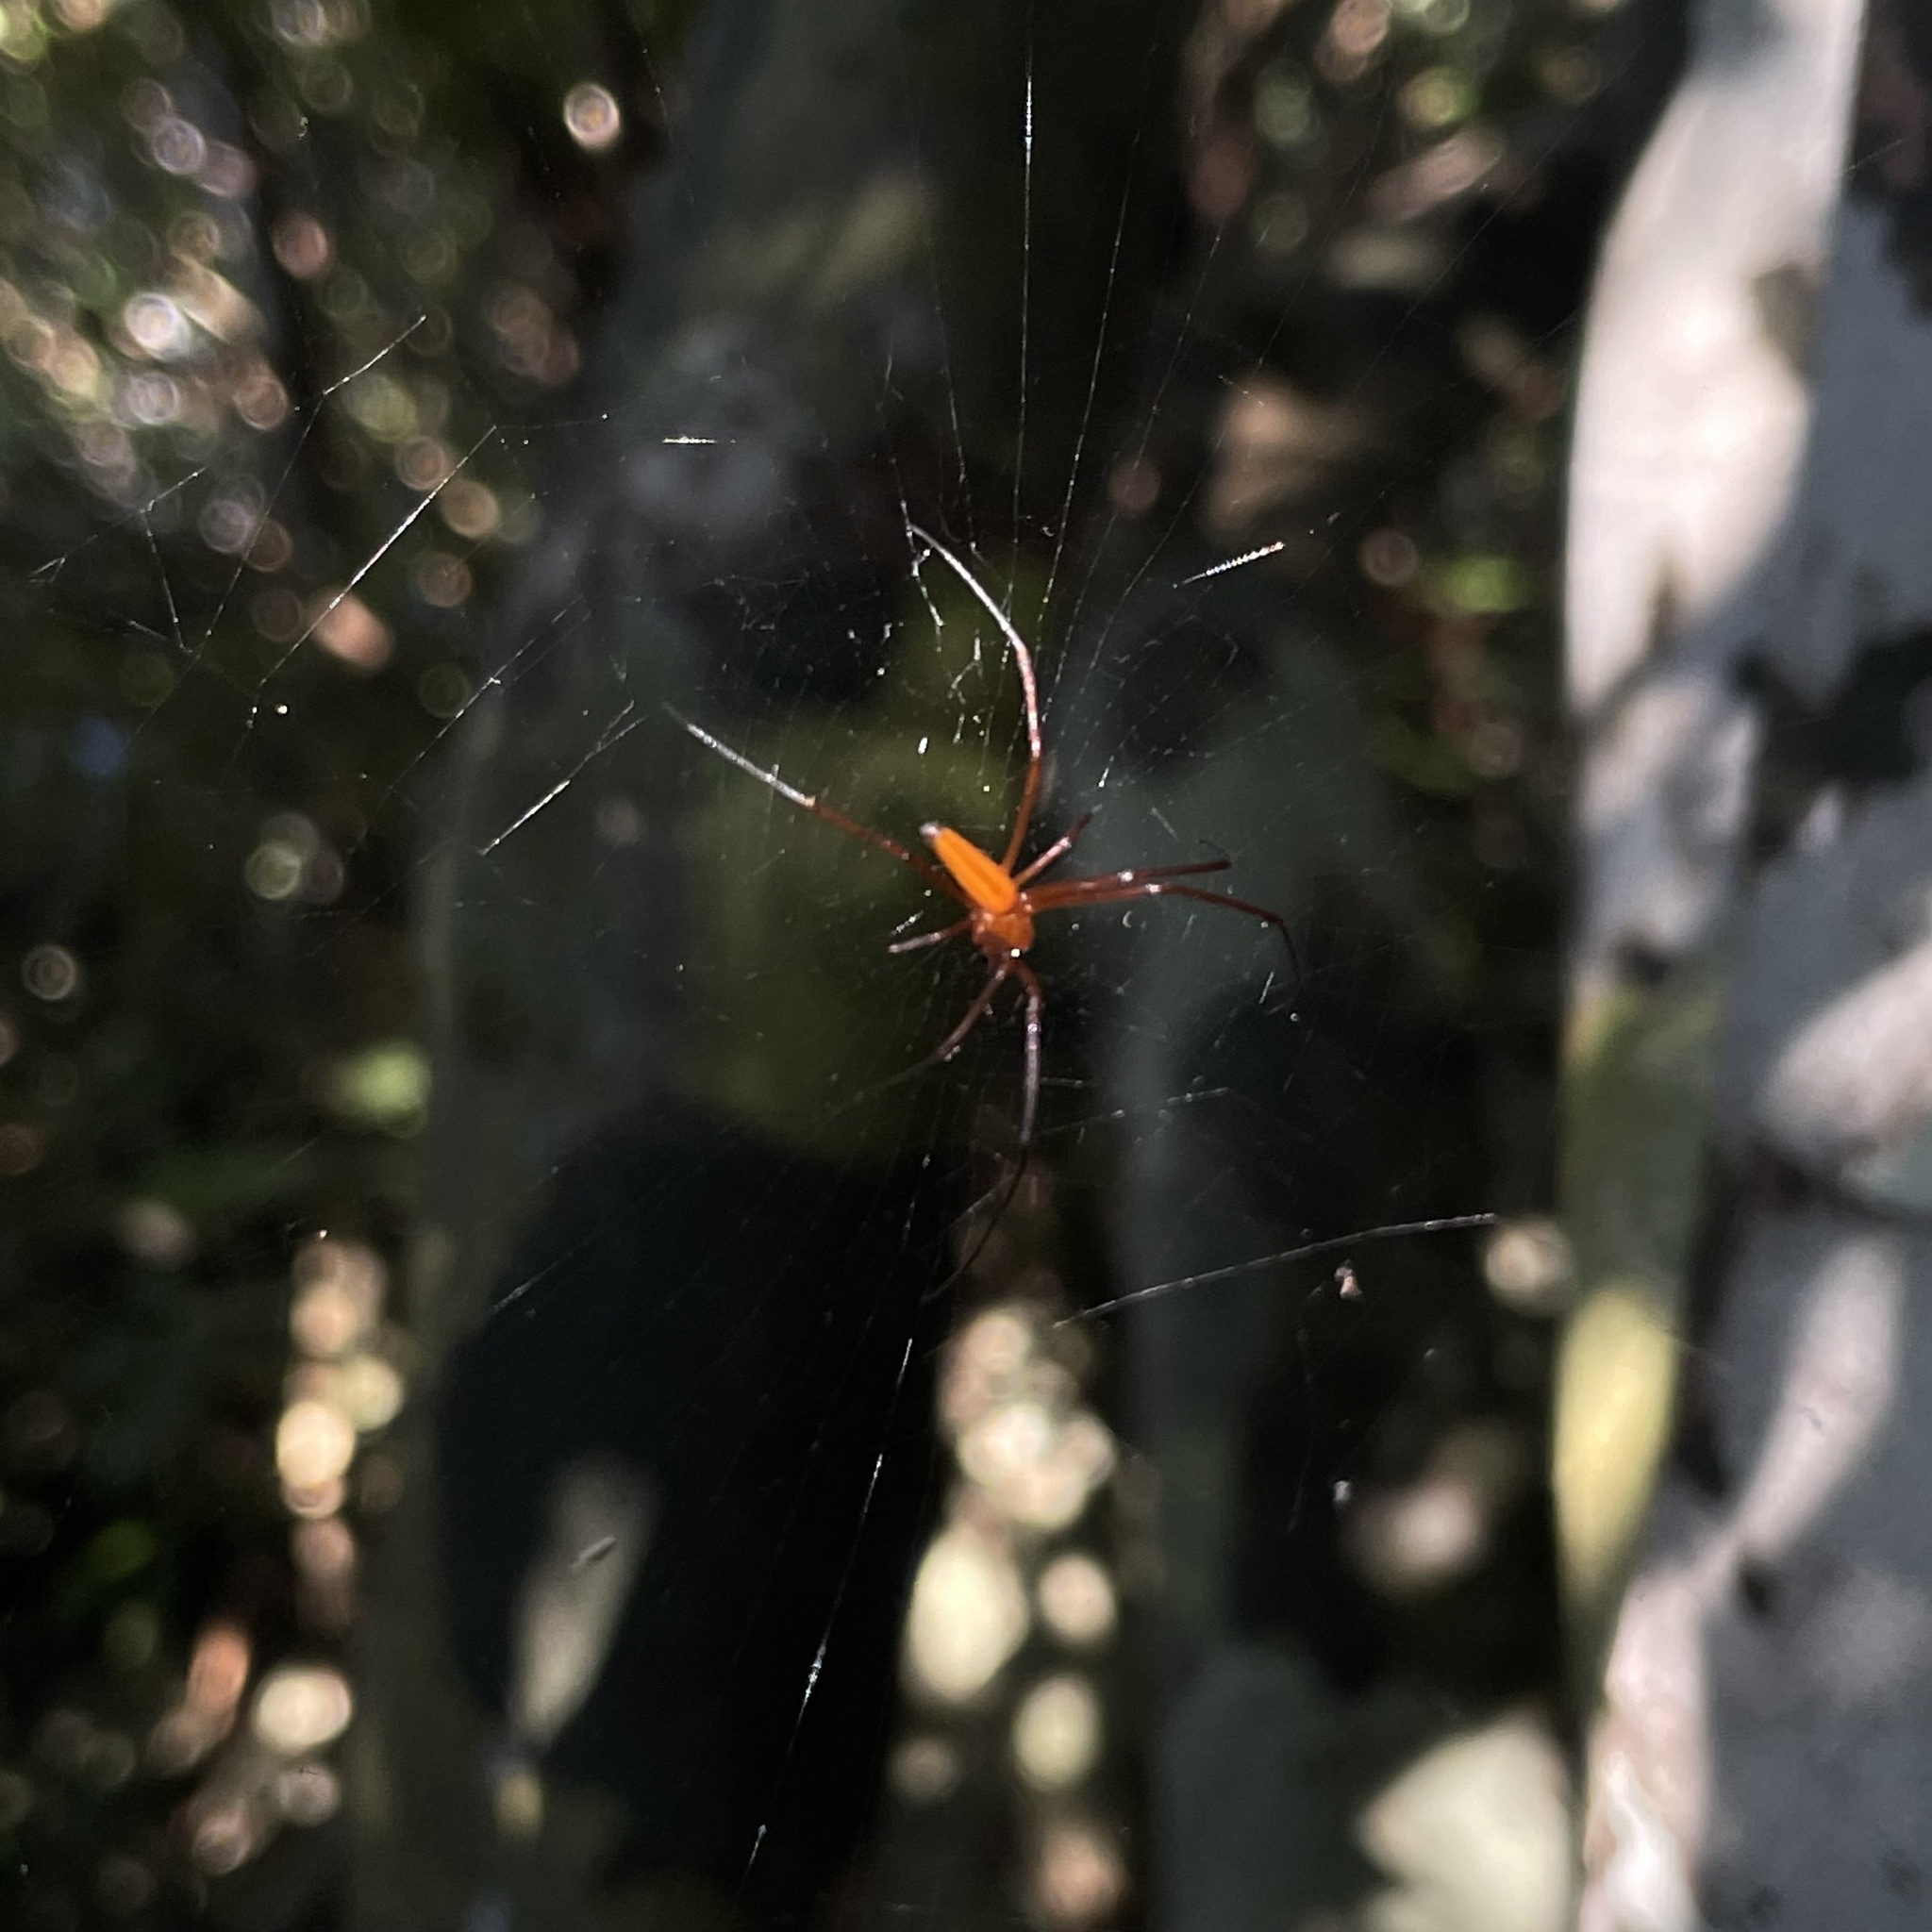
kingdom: Animalia
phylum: Arthropoda
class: Arachnida
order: Araneae
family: Araneidae
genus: Nephila
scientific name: Nephila pilipes
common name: Giant golden orb weaver
